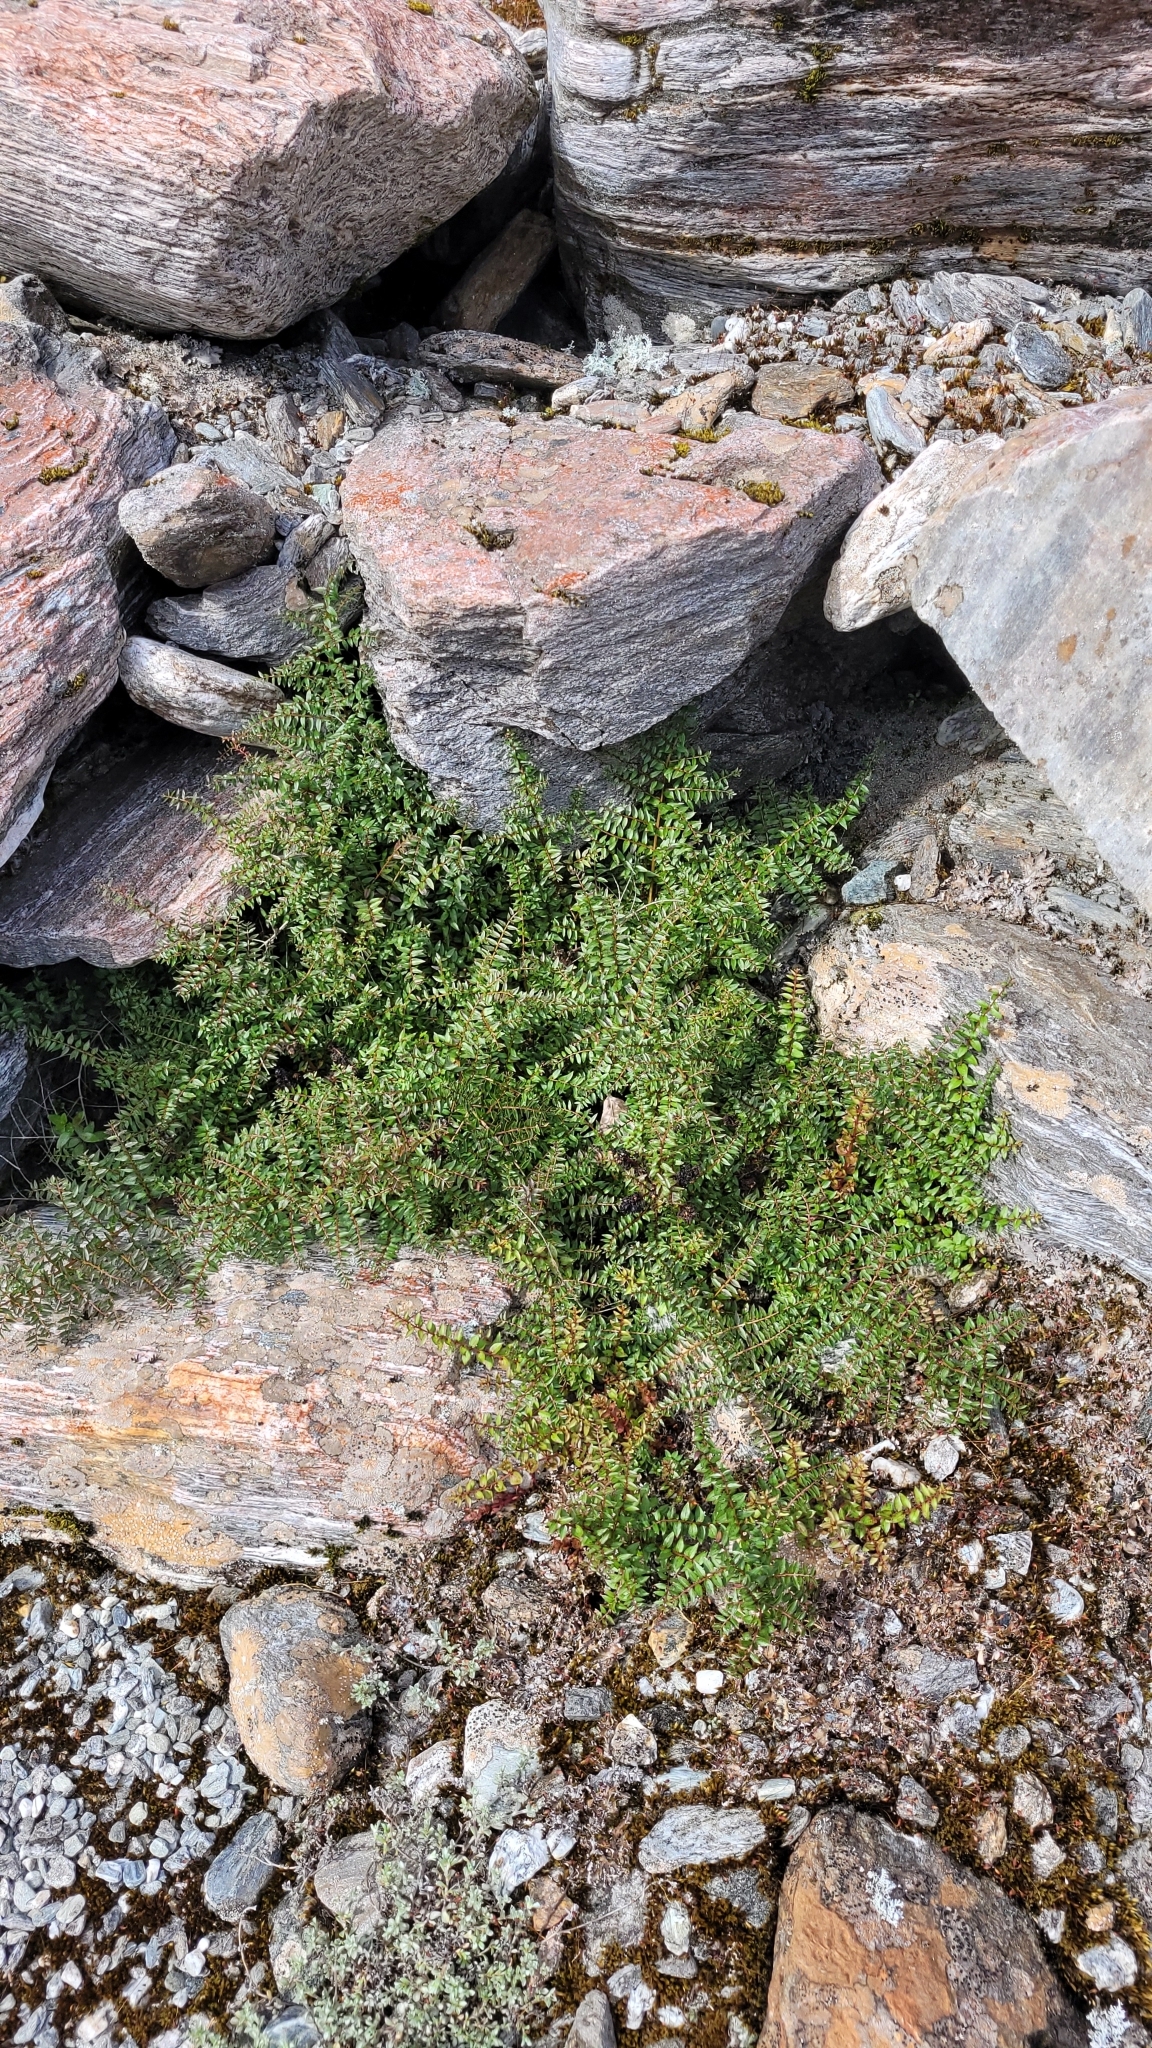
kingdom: Plantae
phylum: Tracheophyta
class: Magnoliopsida
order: Cucurbitales
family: Coriariaceae
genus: Coriaria
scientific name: Coriaria plumosa
